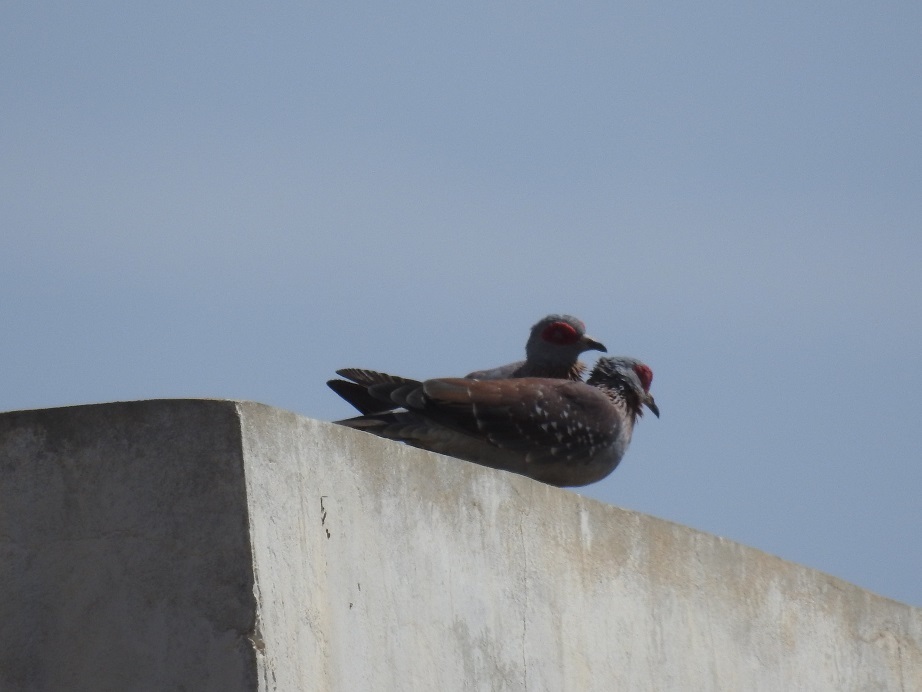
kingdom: Animalia
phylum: Chordata
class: Aves
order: Columbiformes
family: Columbidae
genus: Columba
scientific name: Columba guinea
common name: Speckled pigeon
